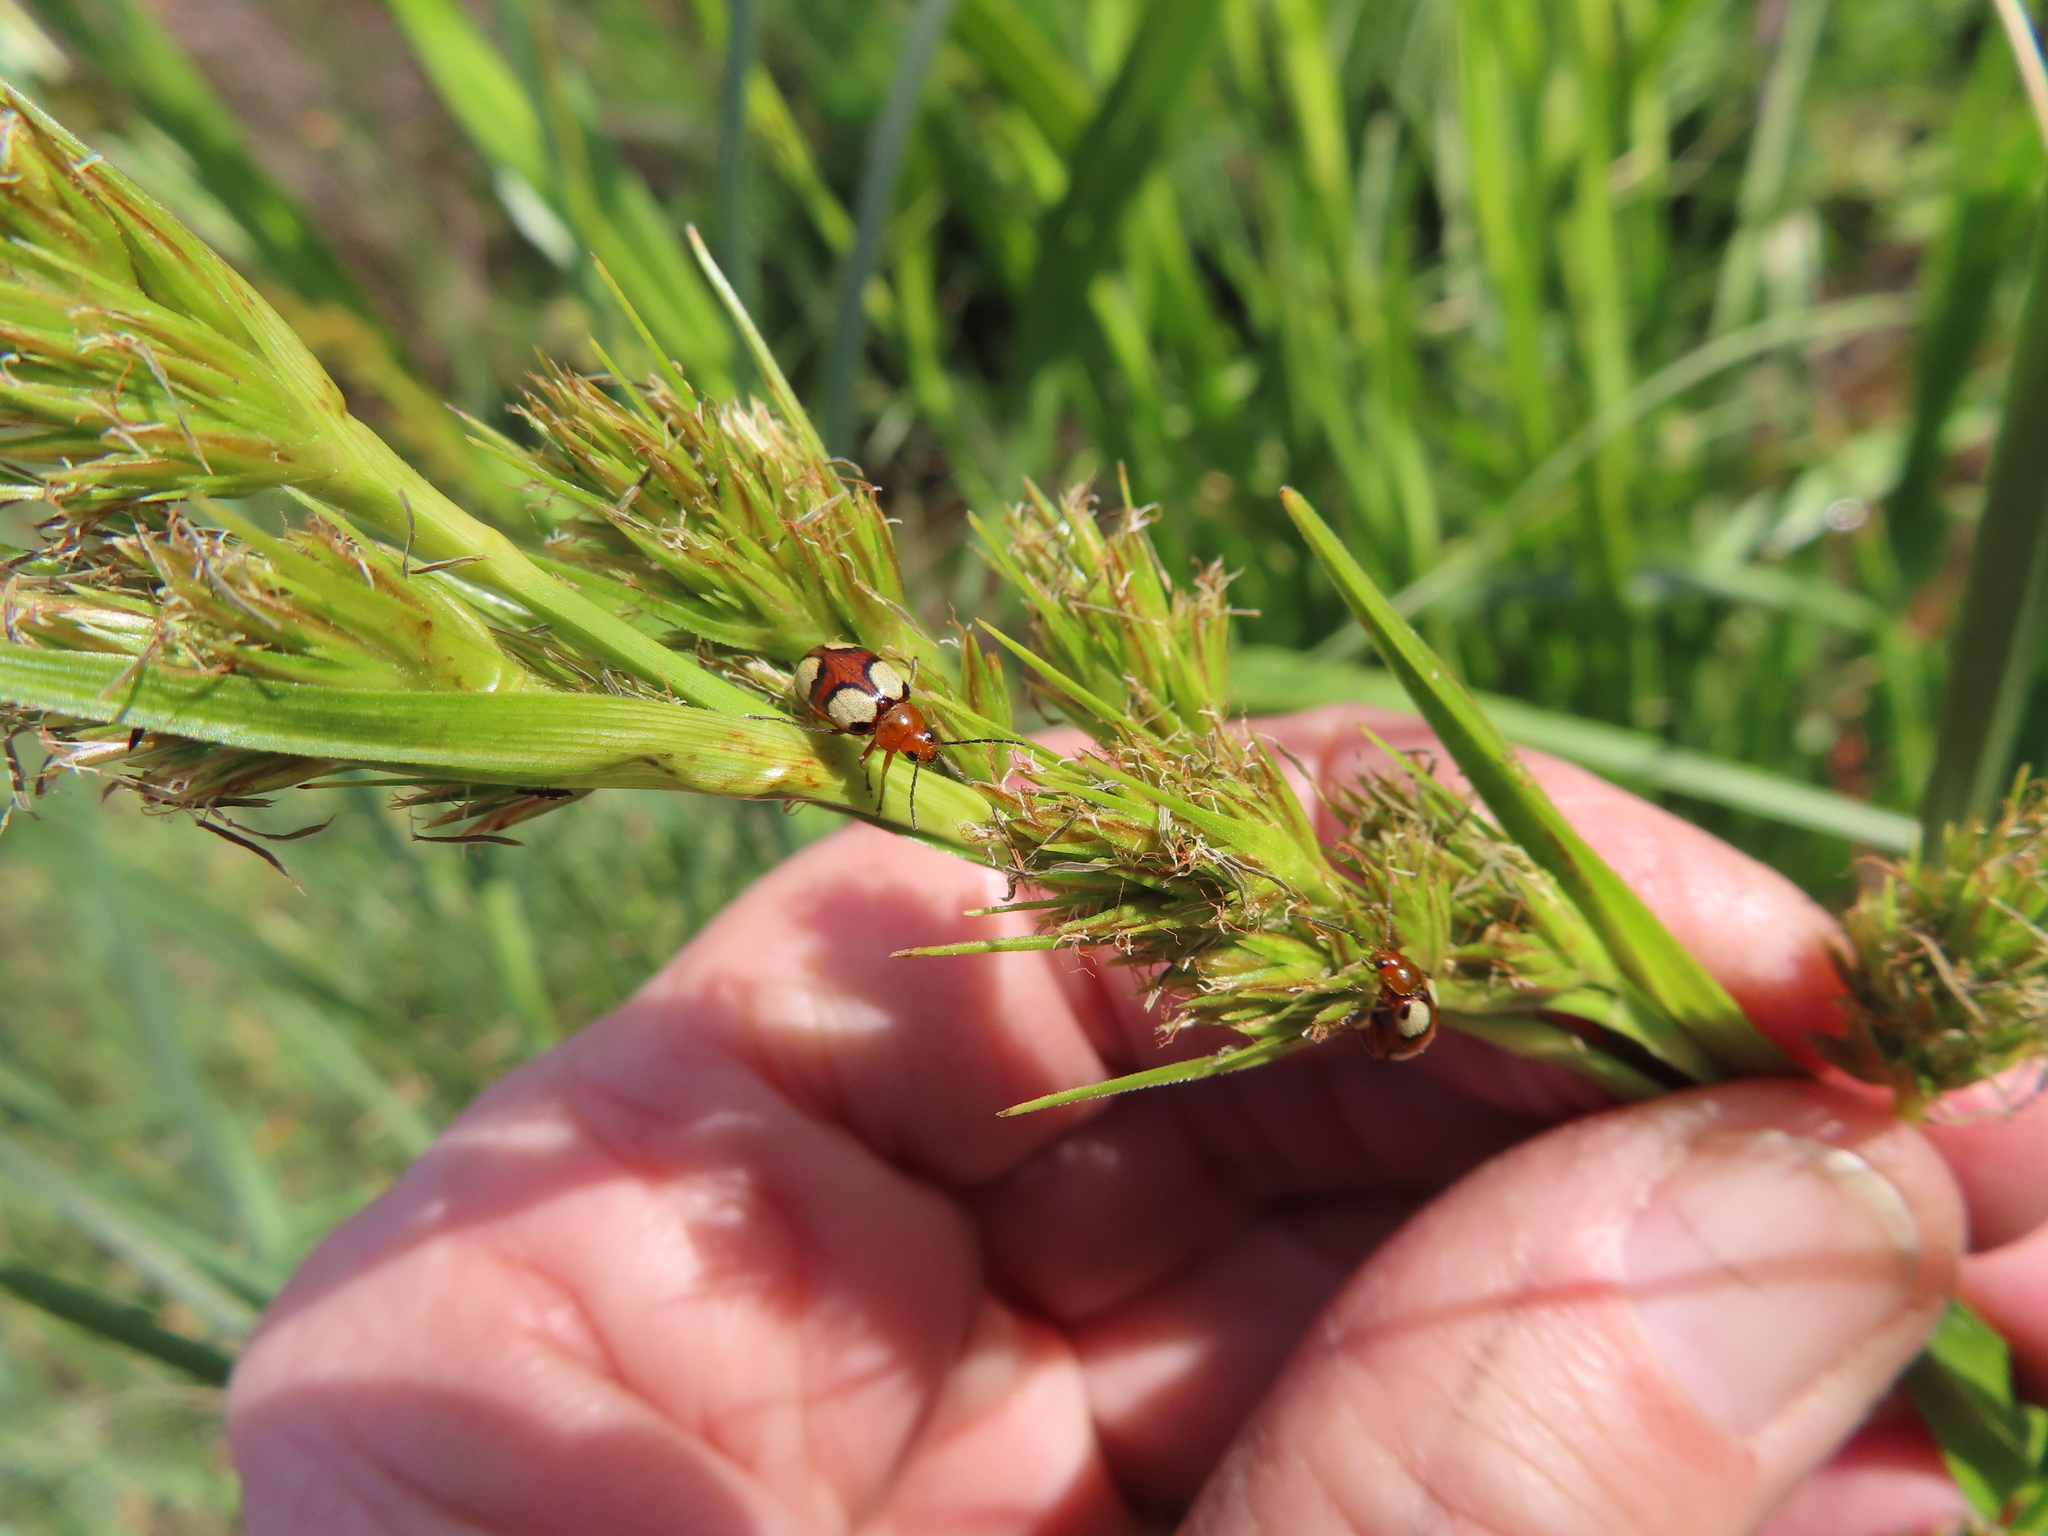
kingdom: Animalia
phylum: Arthropoda
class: Insecta
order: Coleoptera
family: Chrysomelidae
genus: Monolepta
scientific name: Monolepta
